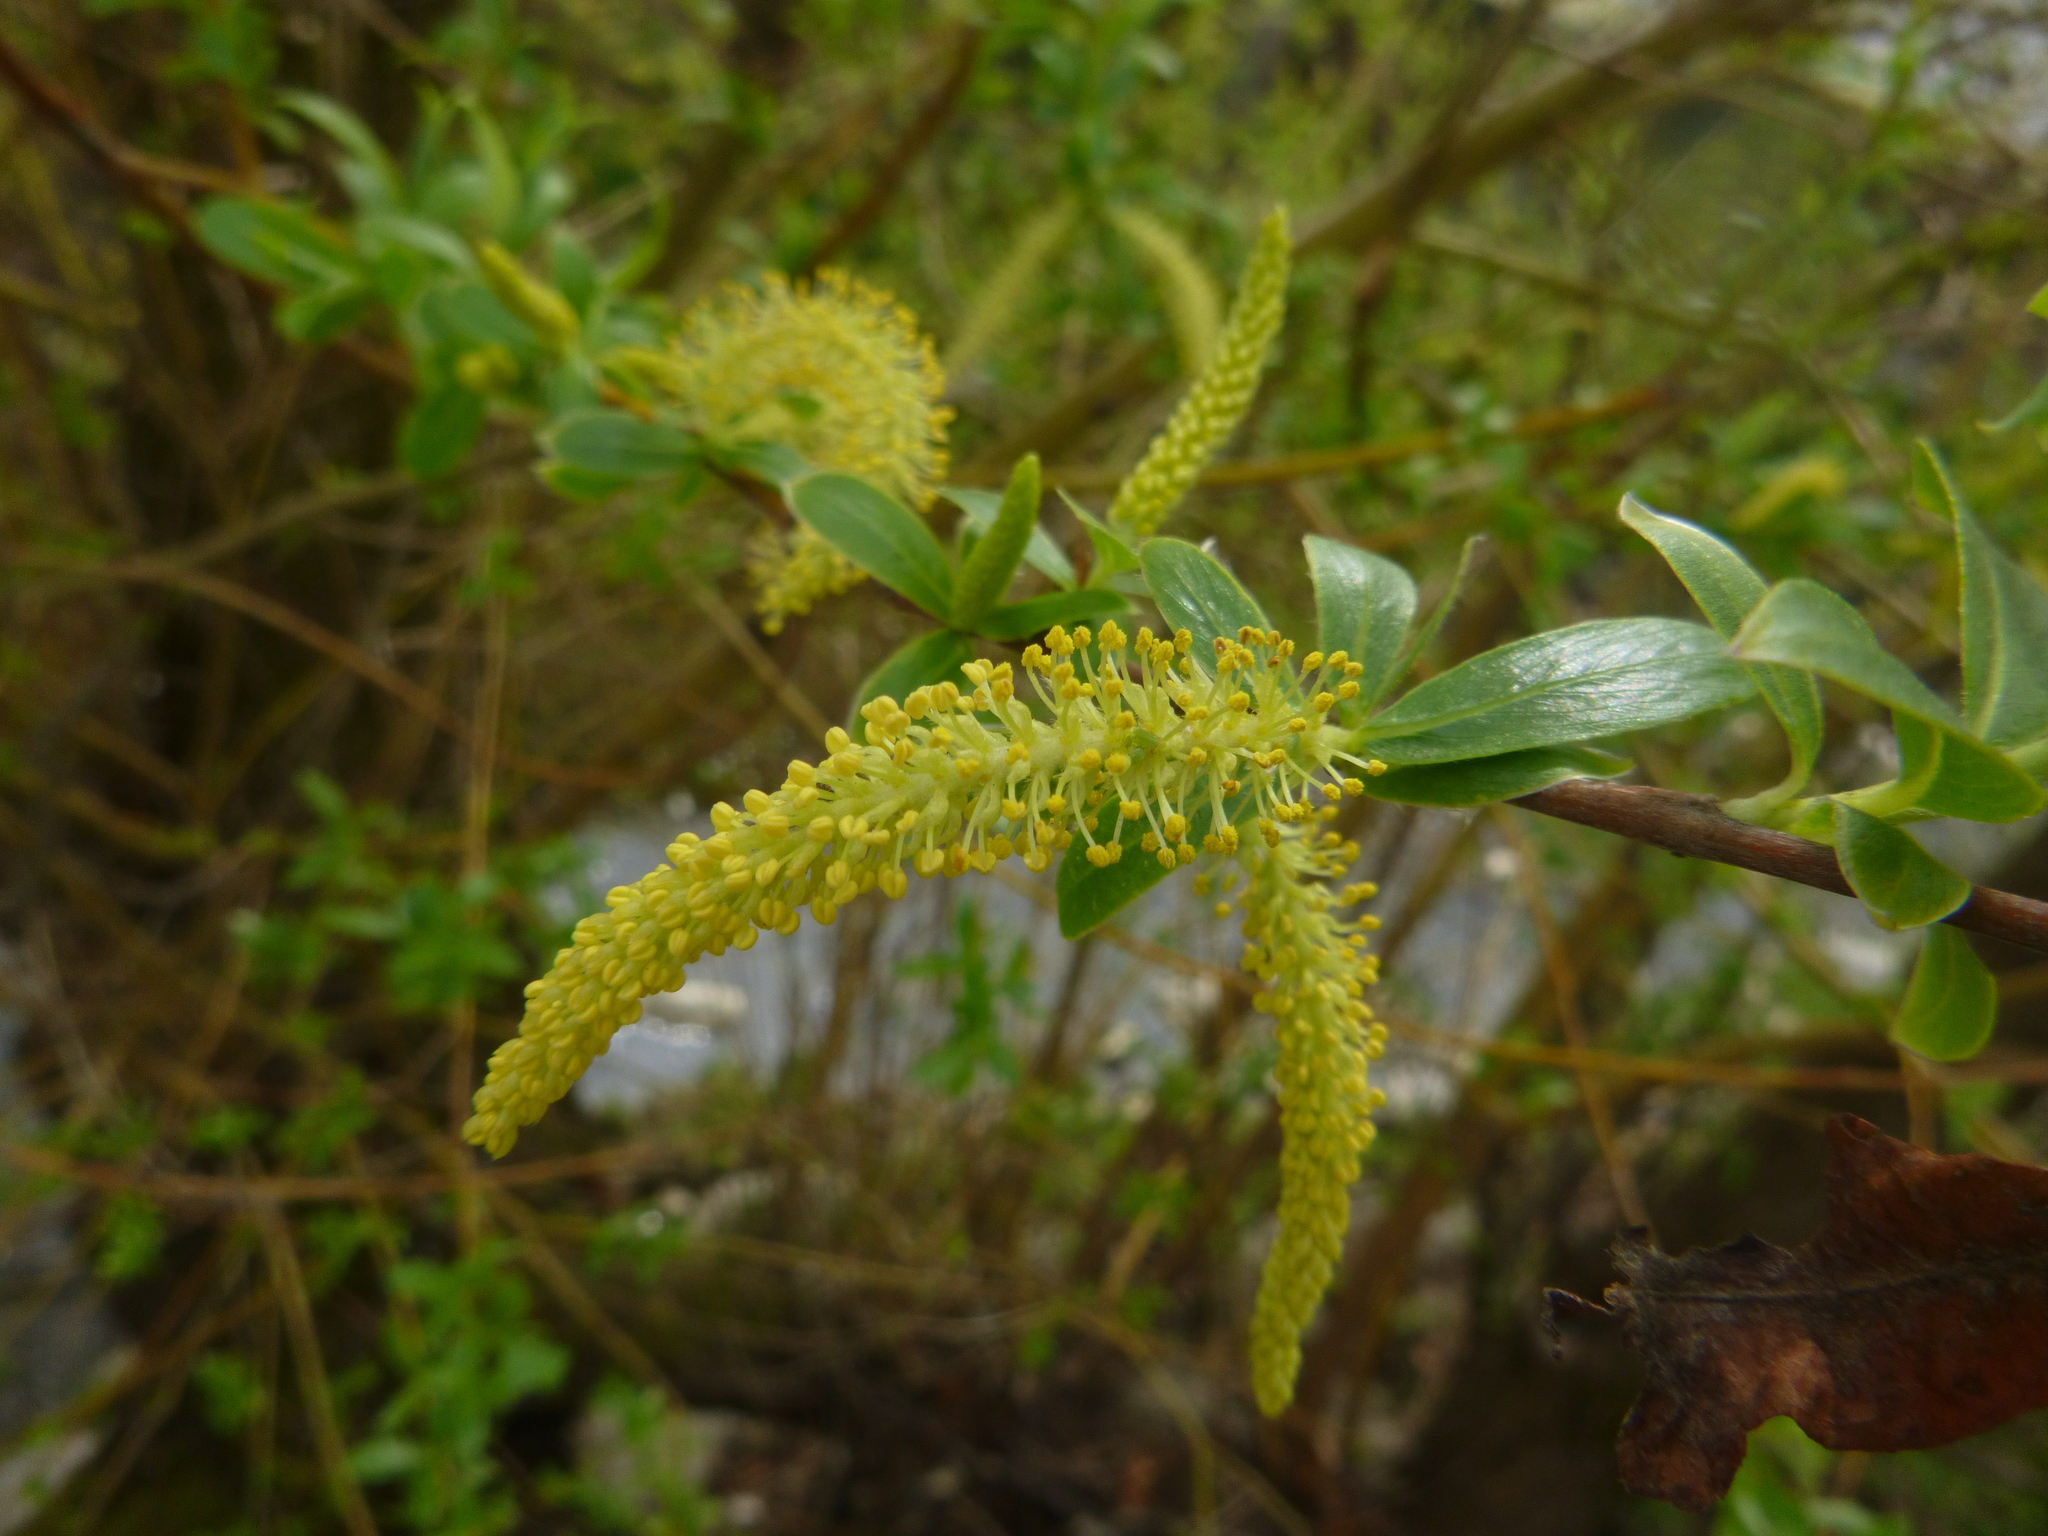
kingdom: Plantae
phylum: Tracheophyta
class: Magnoliopsida
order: Malpighiales
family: Salicaceae
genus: Salix
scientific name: Salix alba
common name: White willow
